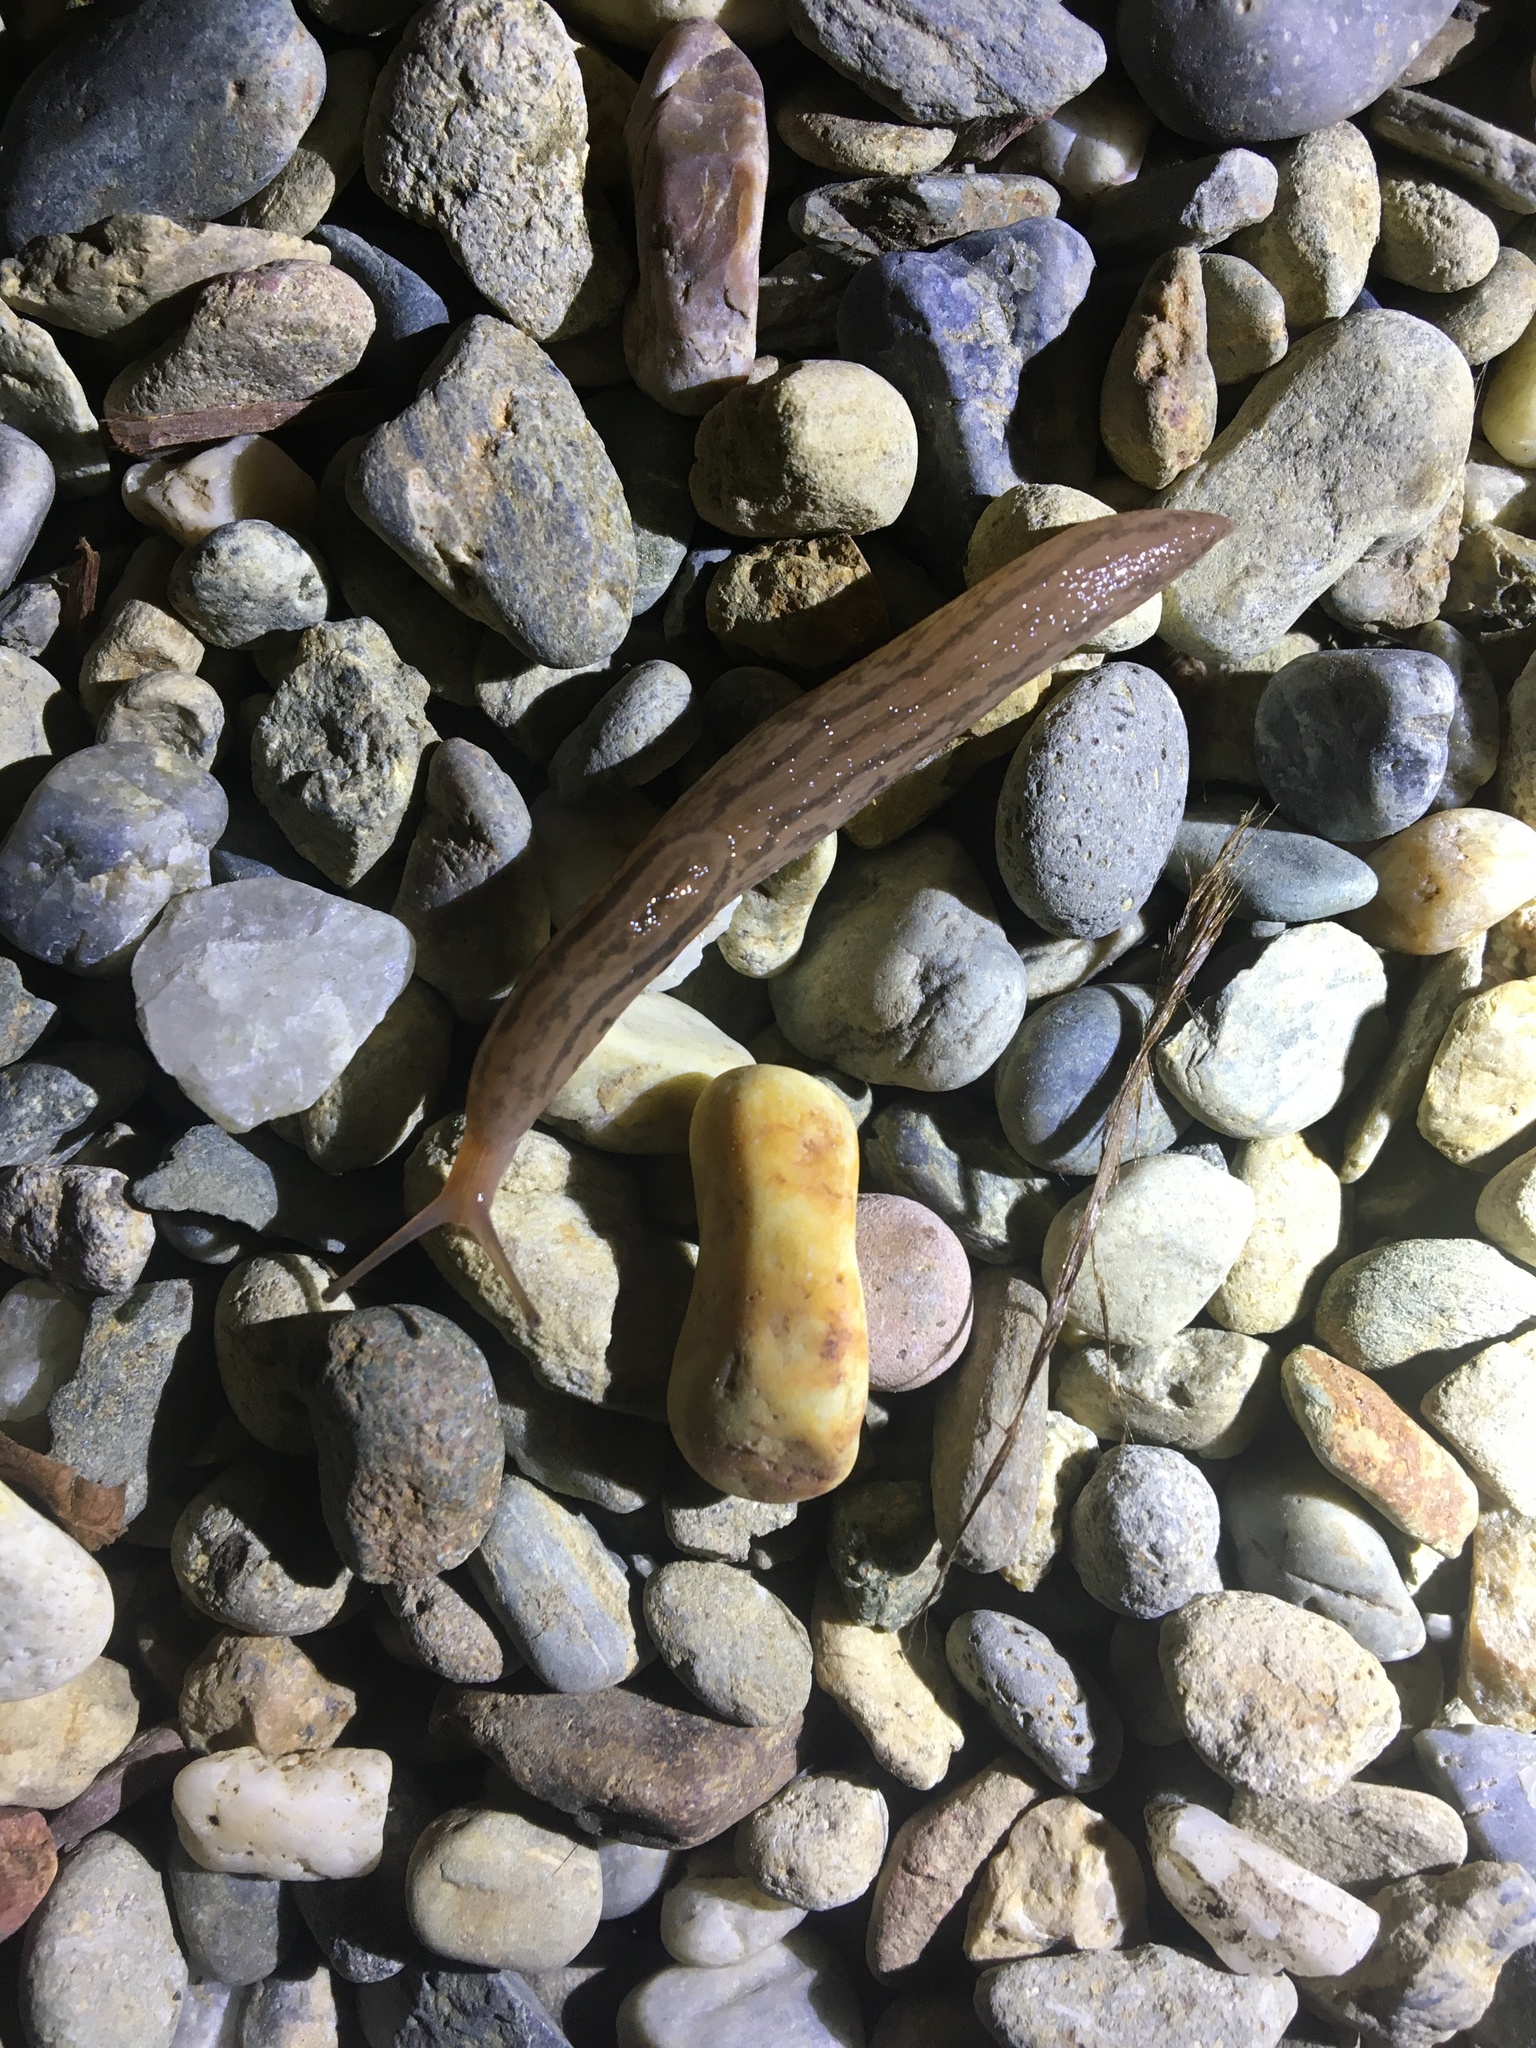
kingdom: Animalia
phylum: Mollusca
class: Gastropoda
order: Stylommatophora
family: Limacidae
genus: Ambigolimax
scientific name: Ambigolimax
